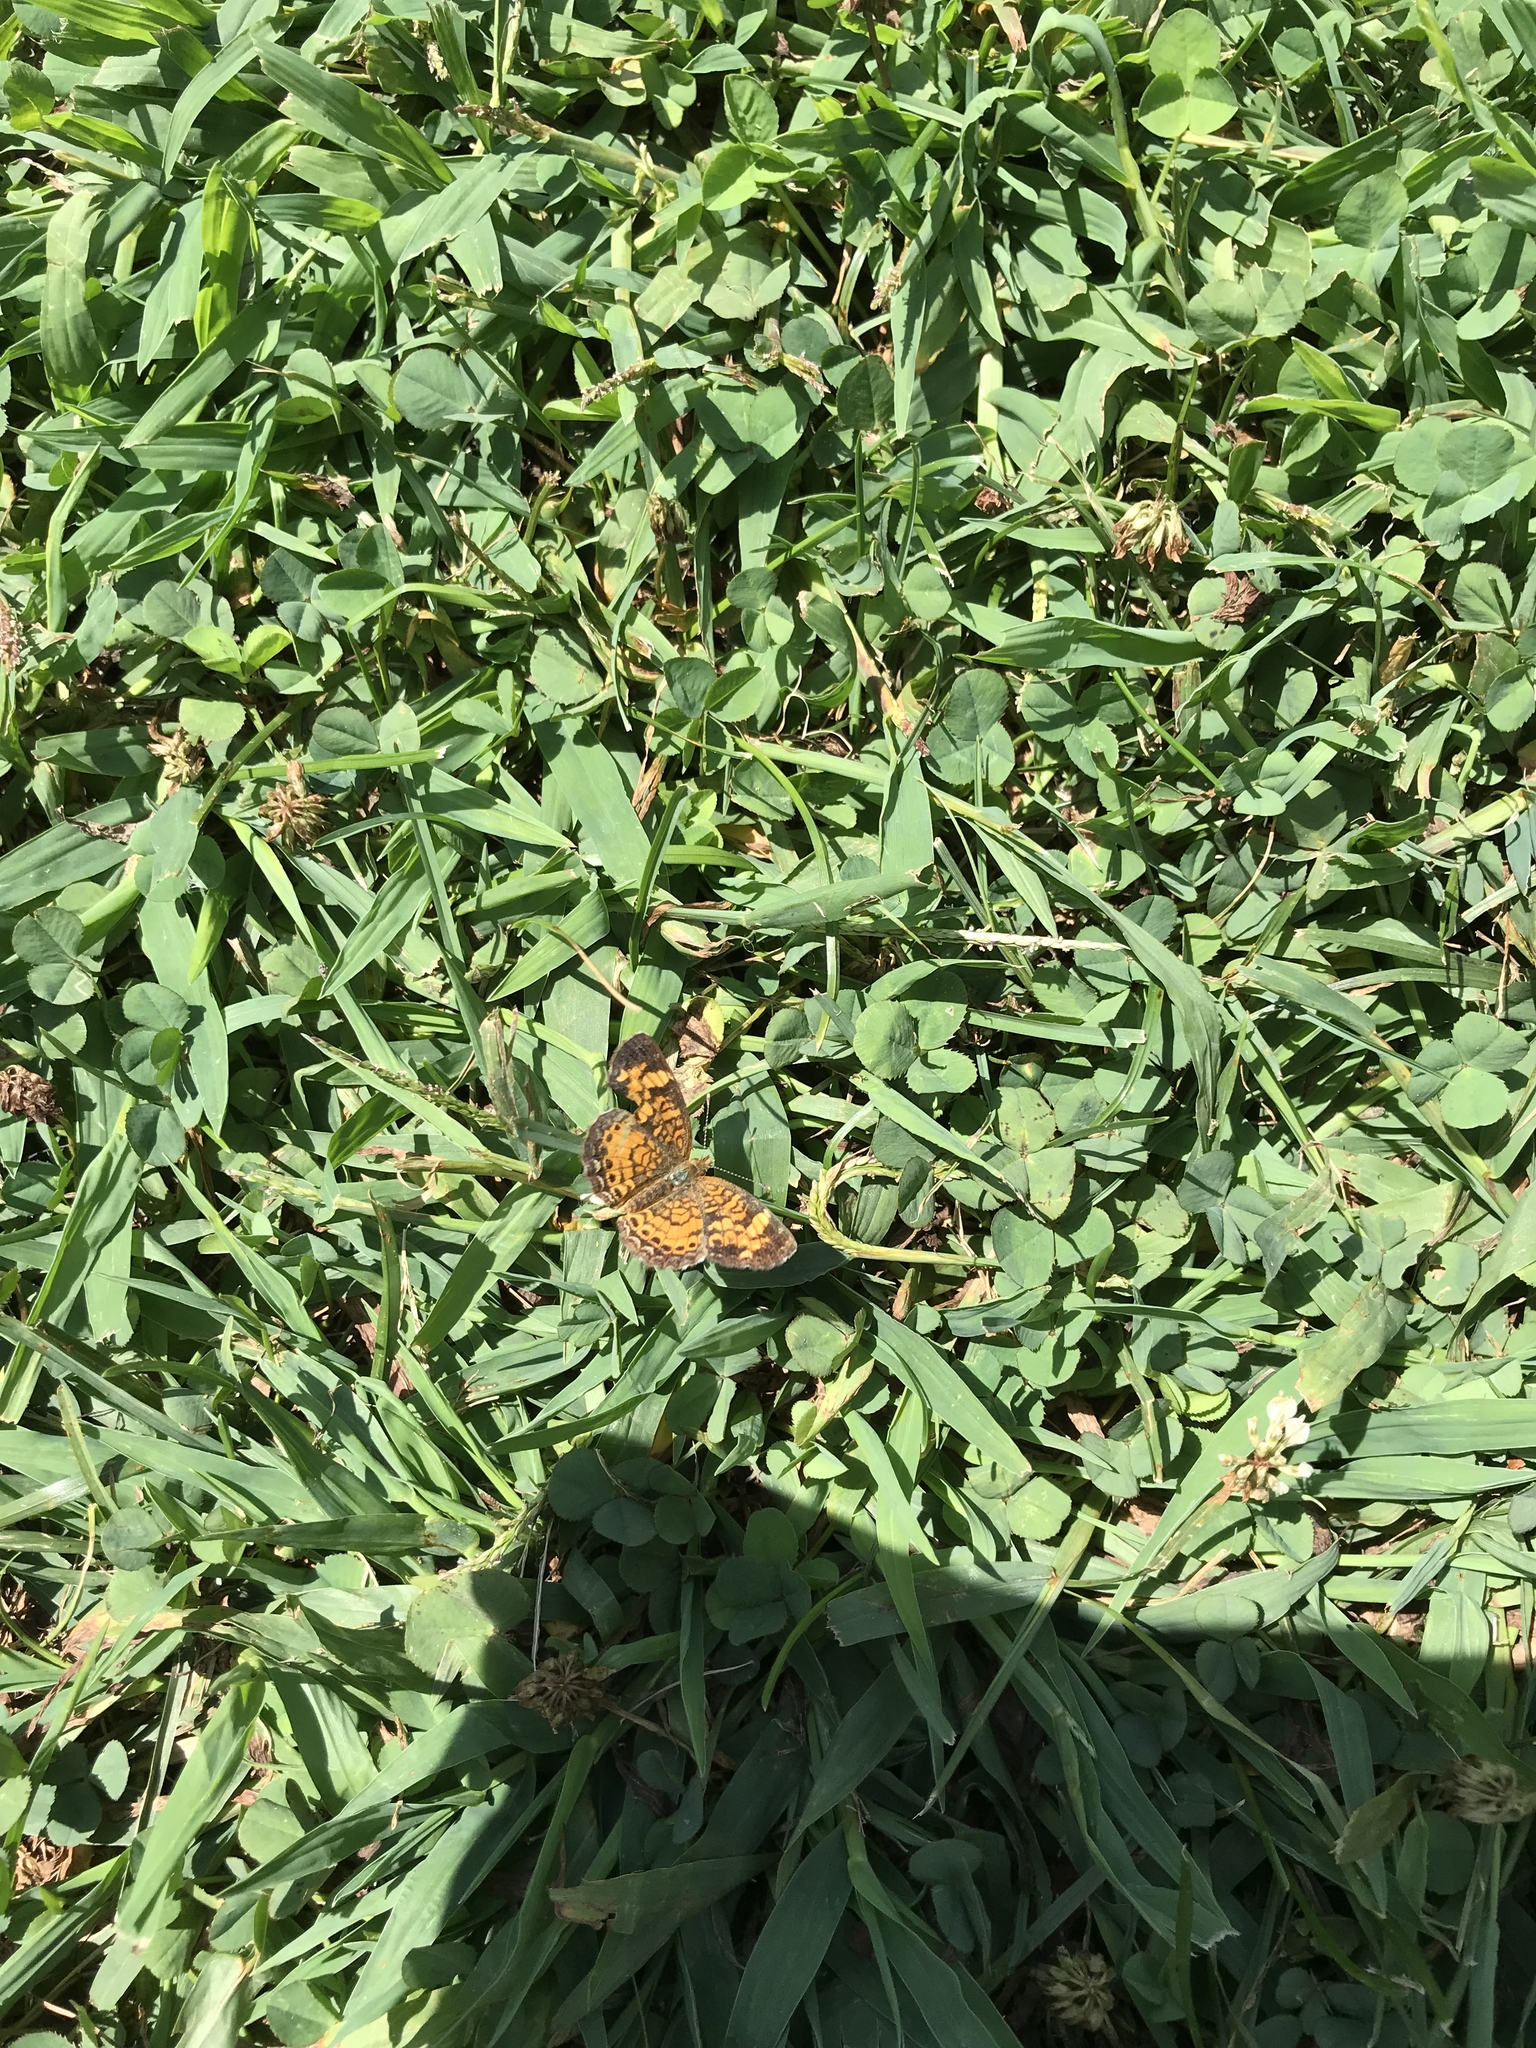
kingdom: Animalia
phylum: Arthropoda
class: Insecta
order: Lepidoptera
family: Nymphalidae
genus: Phyciodes
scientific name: Phyciodes tharos
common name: Pearl crescent
